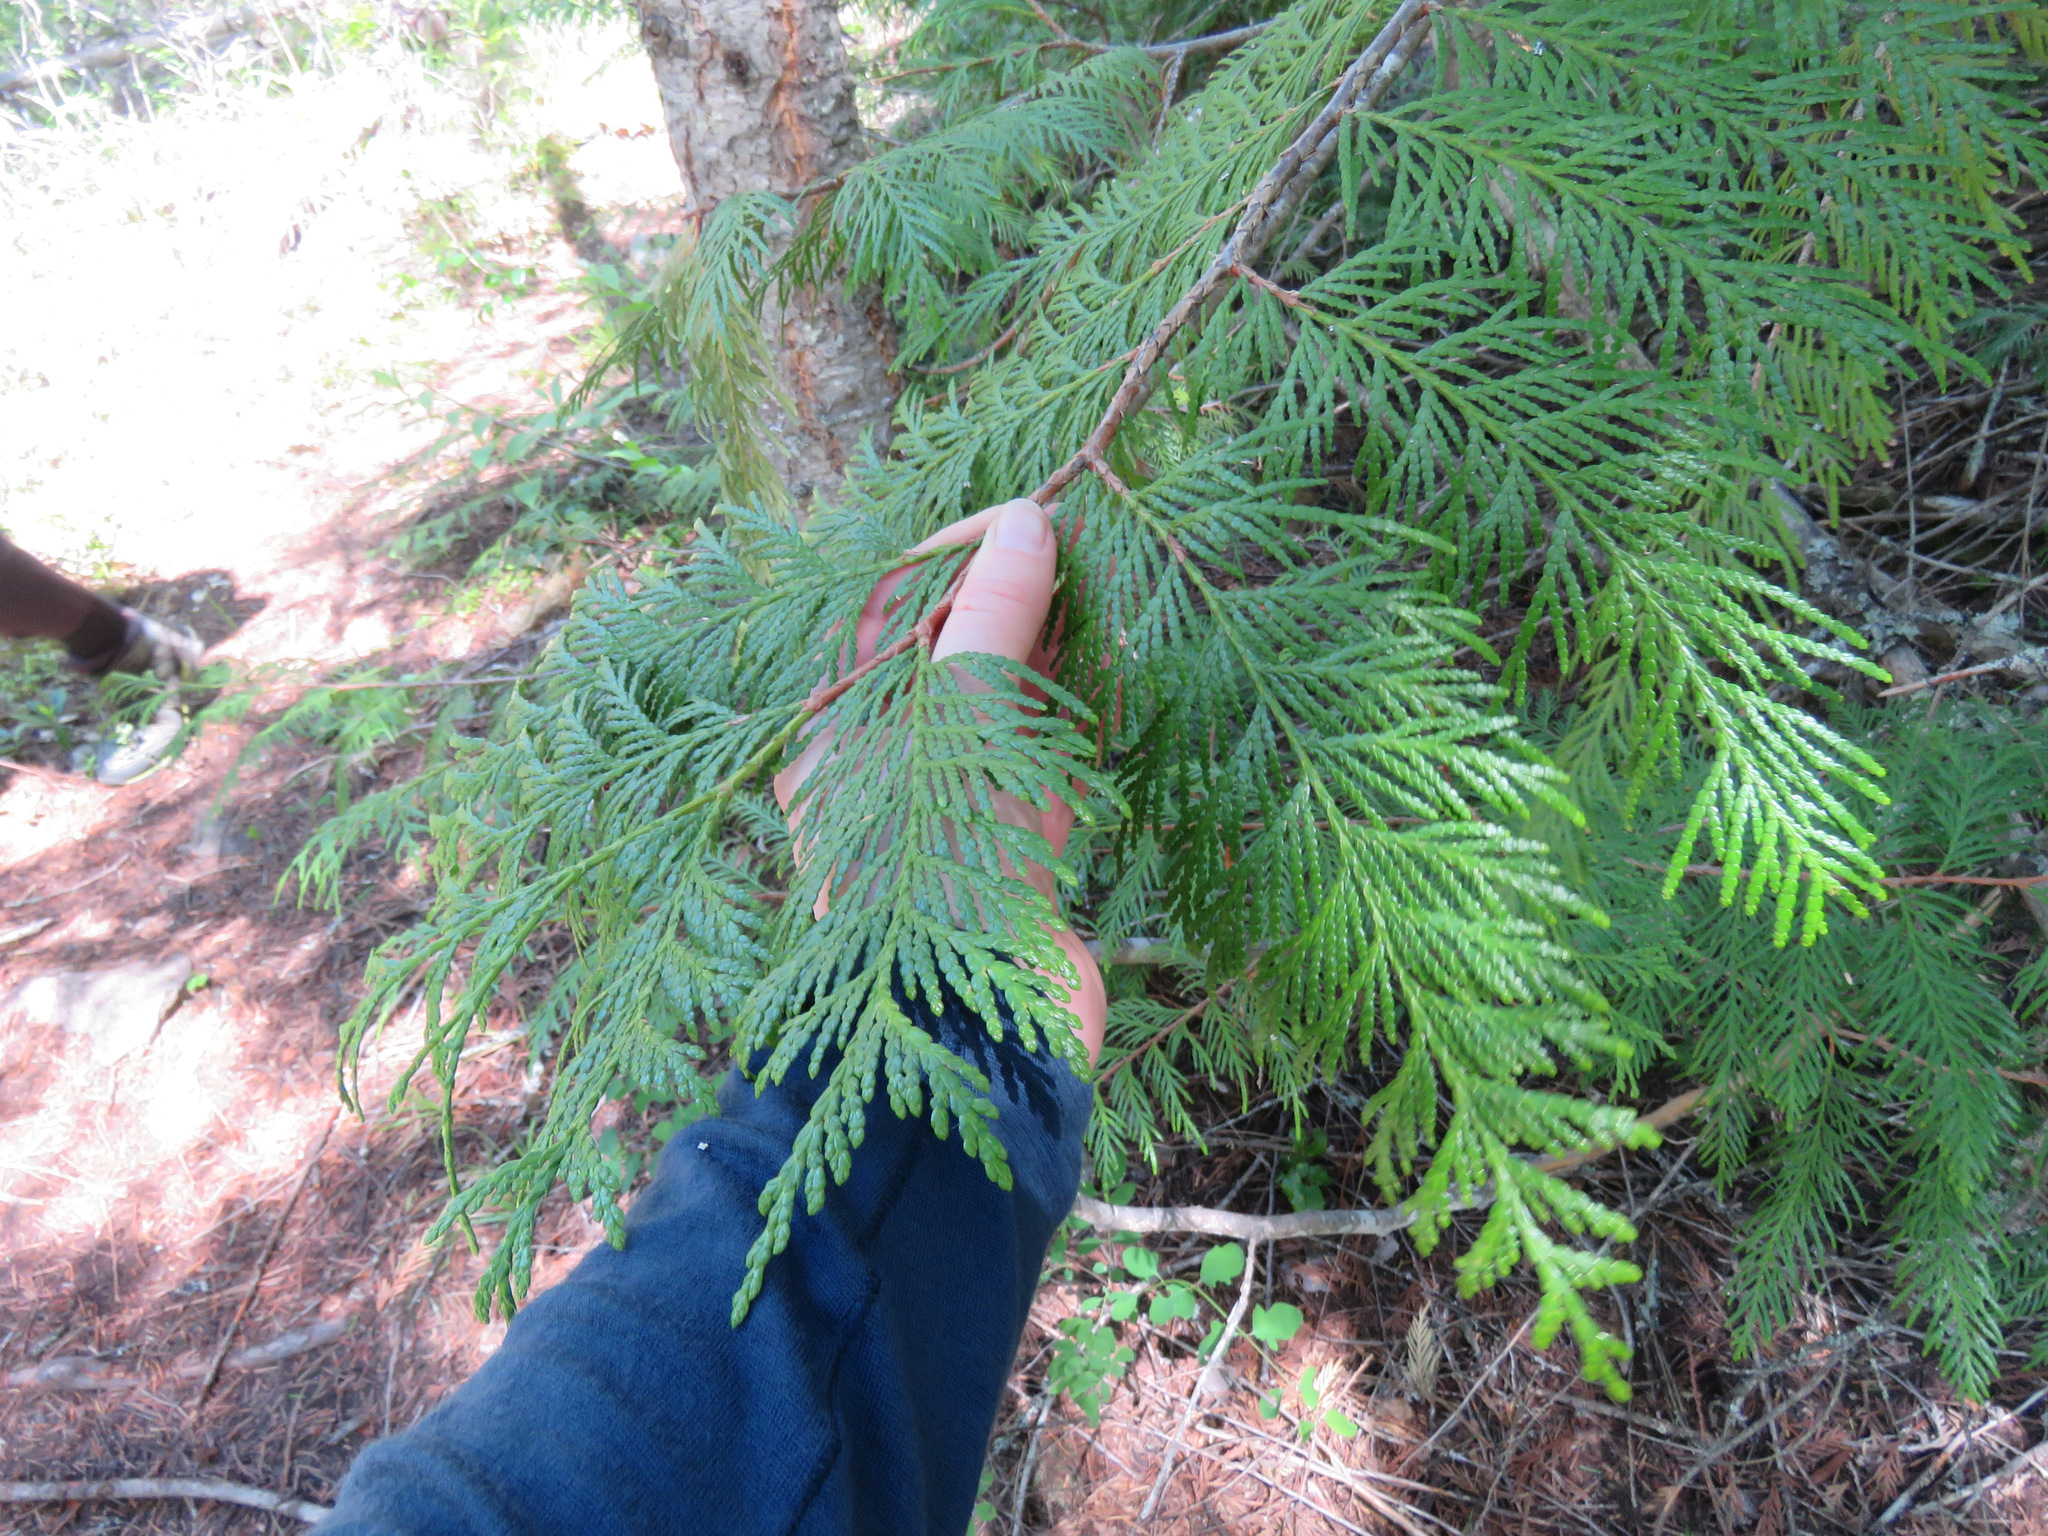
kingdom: Plantae
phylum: Tracheophyta
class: Pinopsida
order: Pinales
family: Cupressaceae
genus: Thuja
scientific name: Thuja plicata
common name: Western red-cedar
